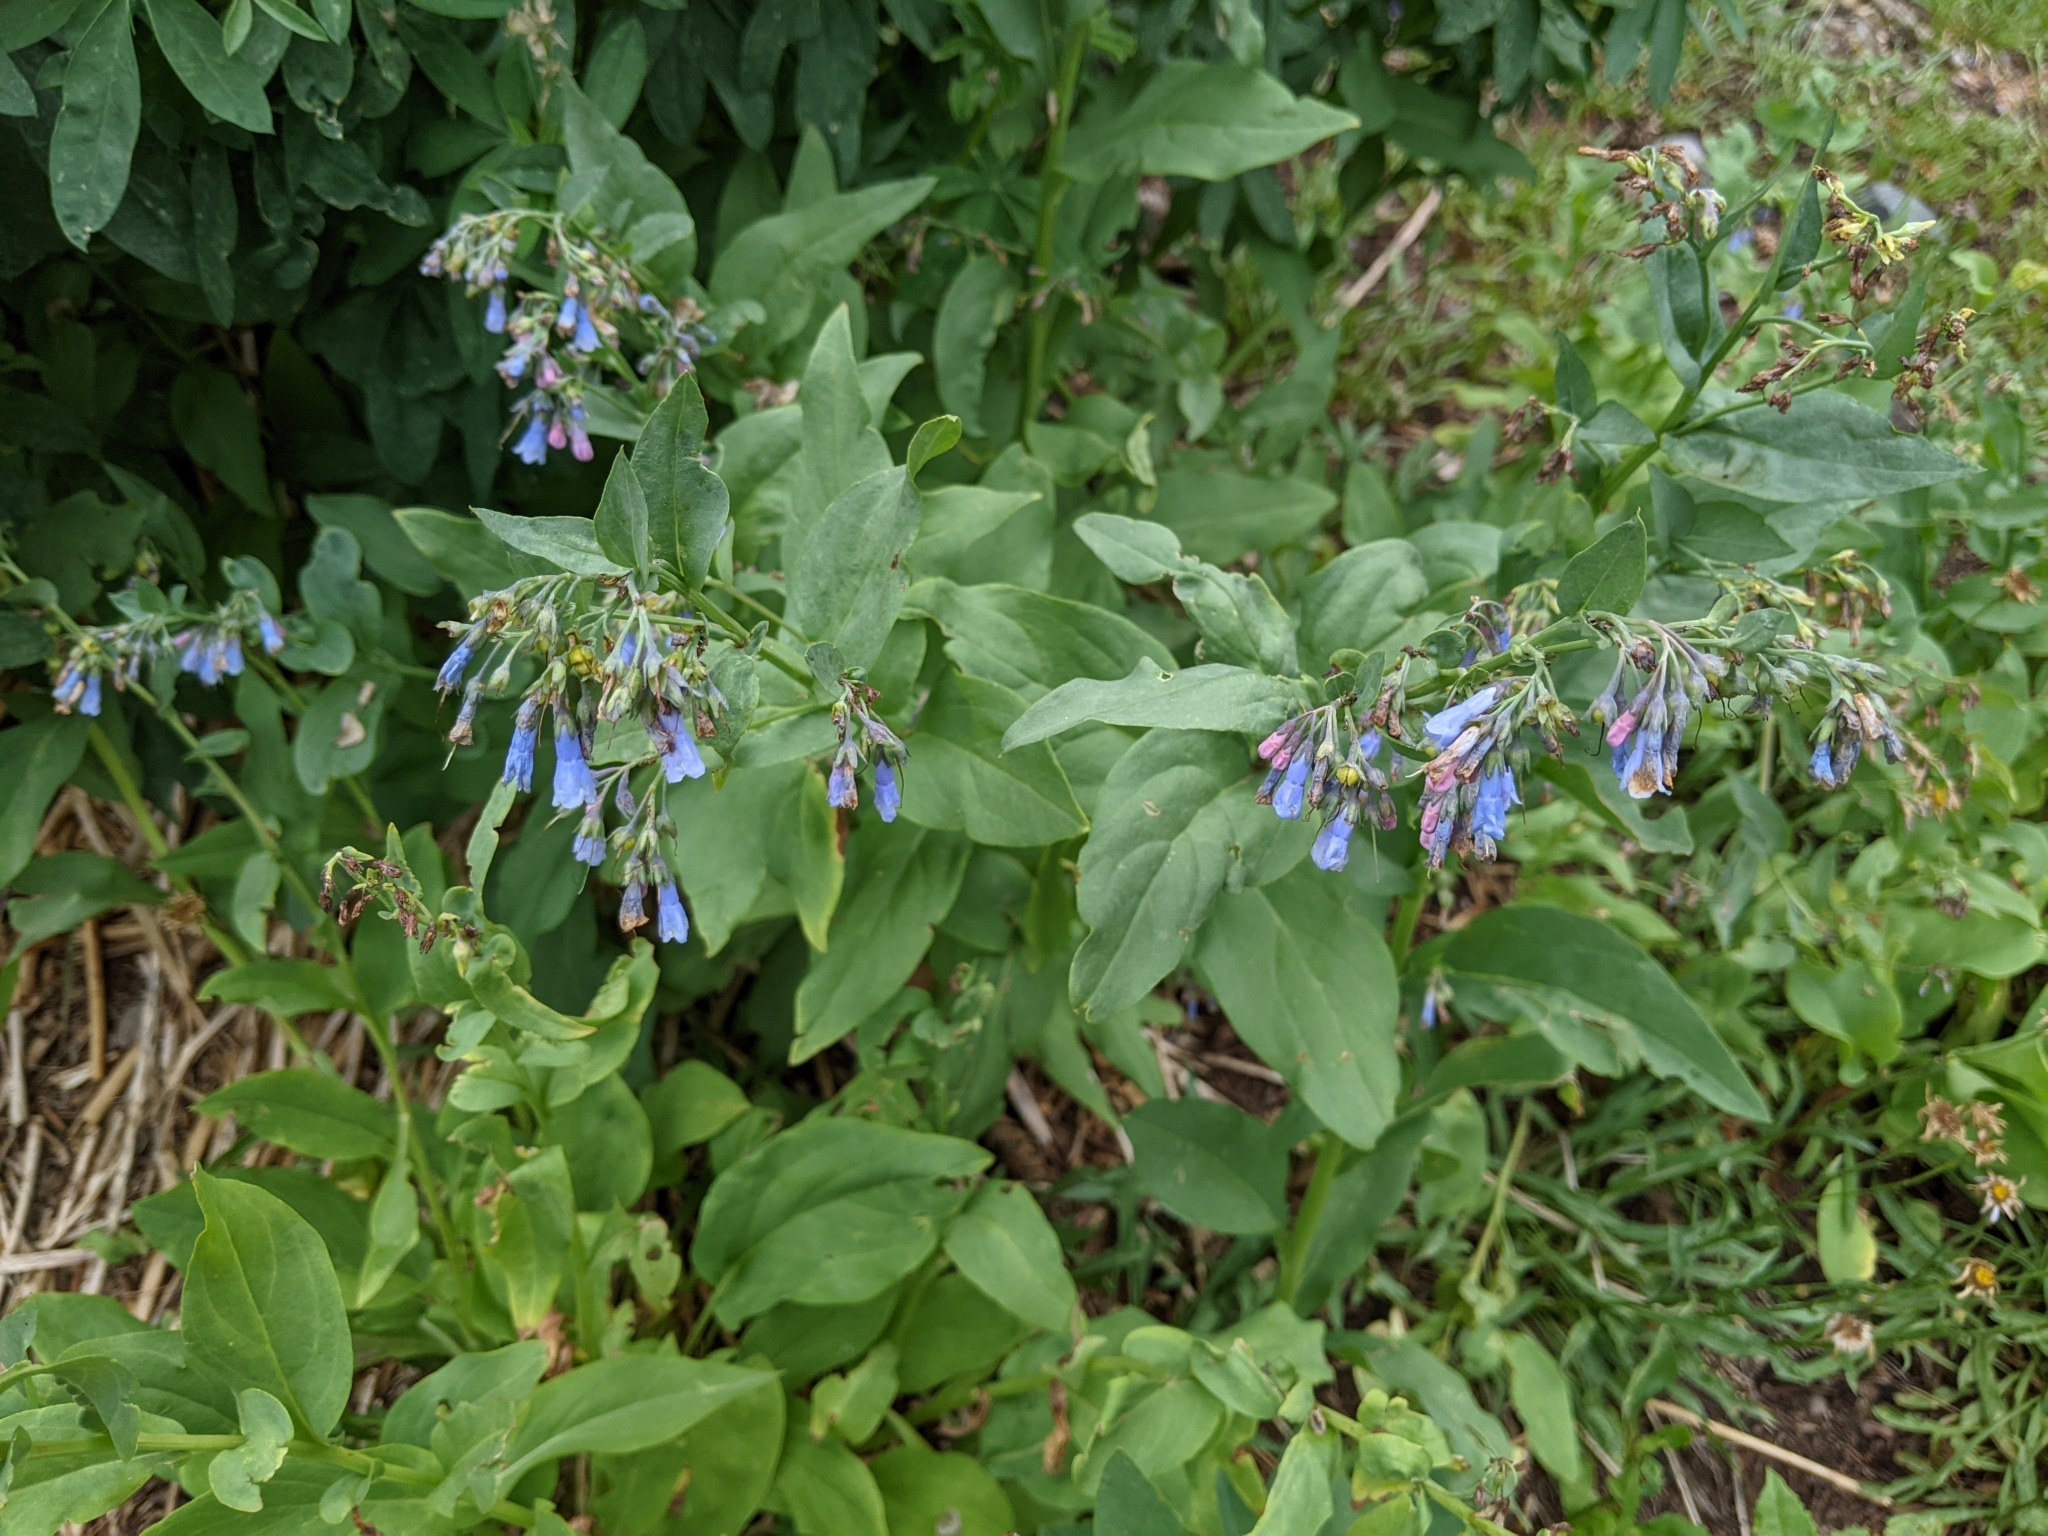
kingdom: Plantae
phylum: Tracheophyta
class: Magnoliopsida
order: Boraginales
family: Boraginaceae
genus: Mertensia
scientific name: Mertensia ciliata
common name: Tall chiming-bells
